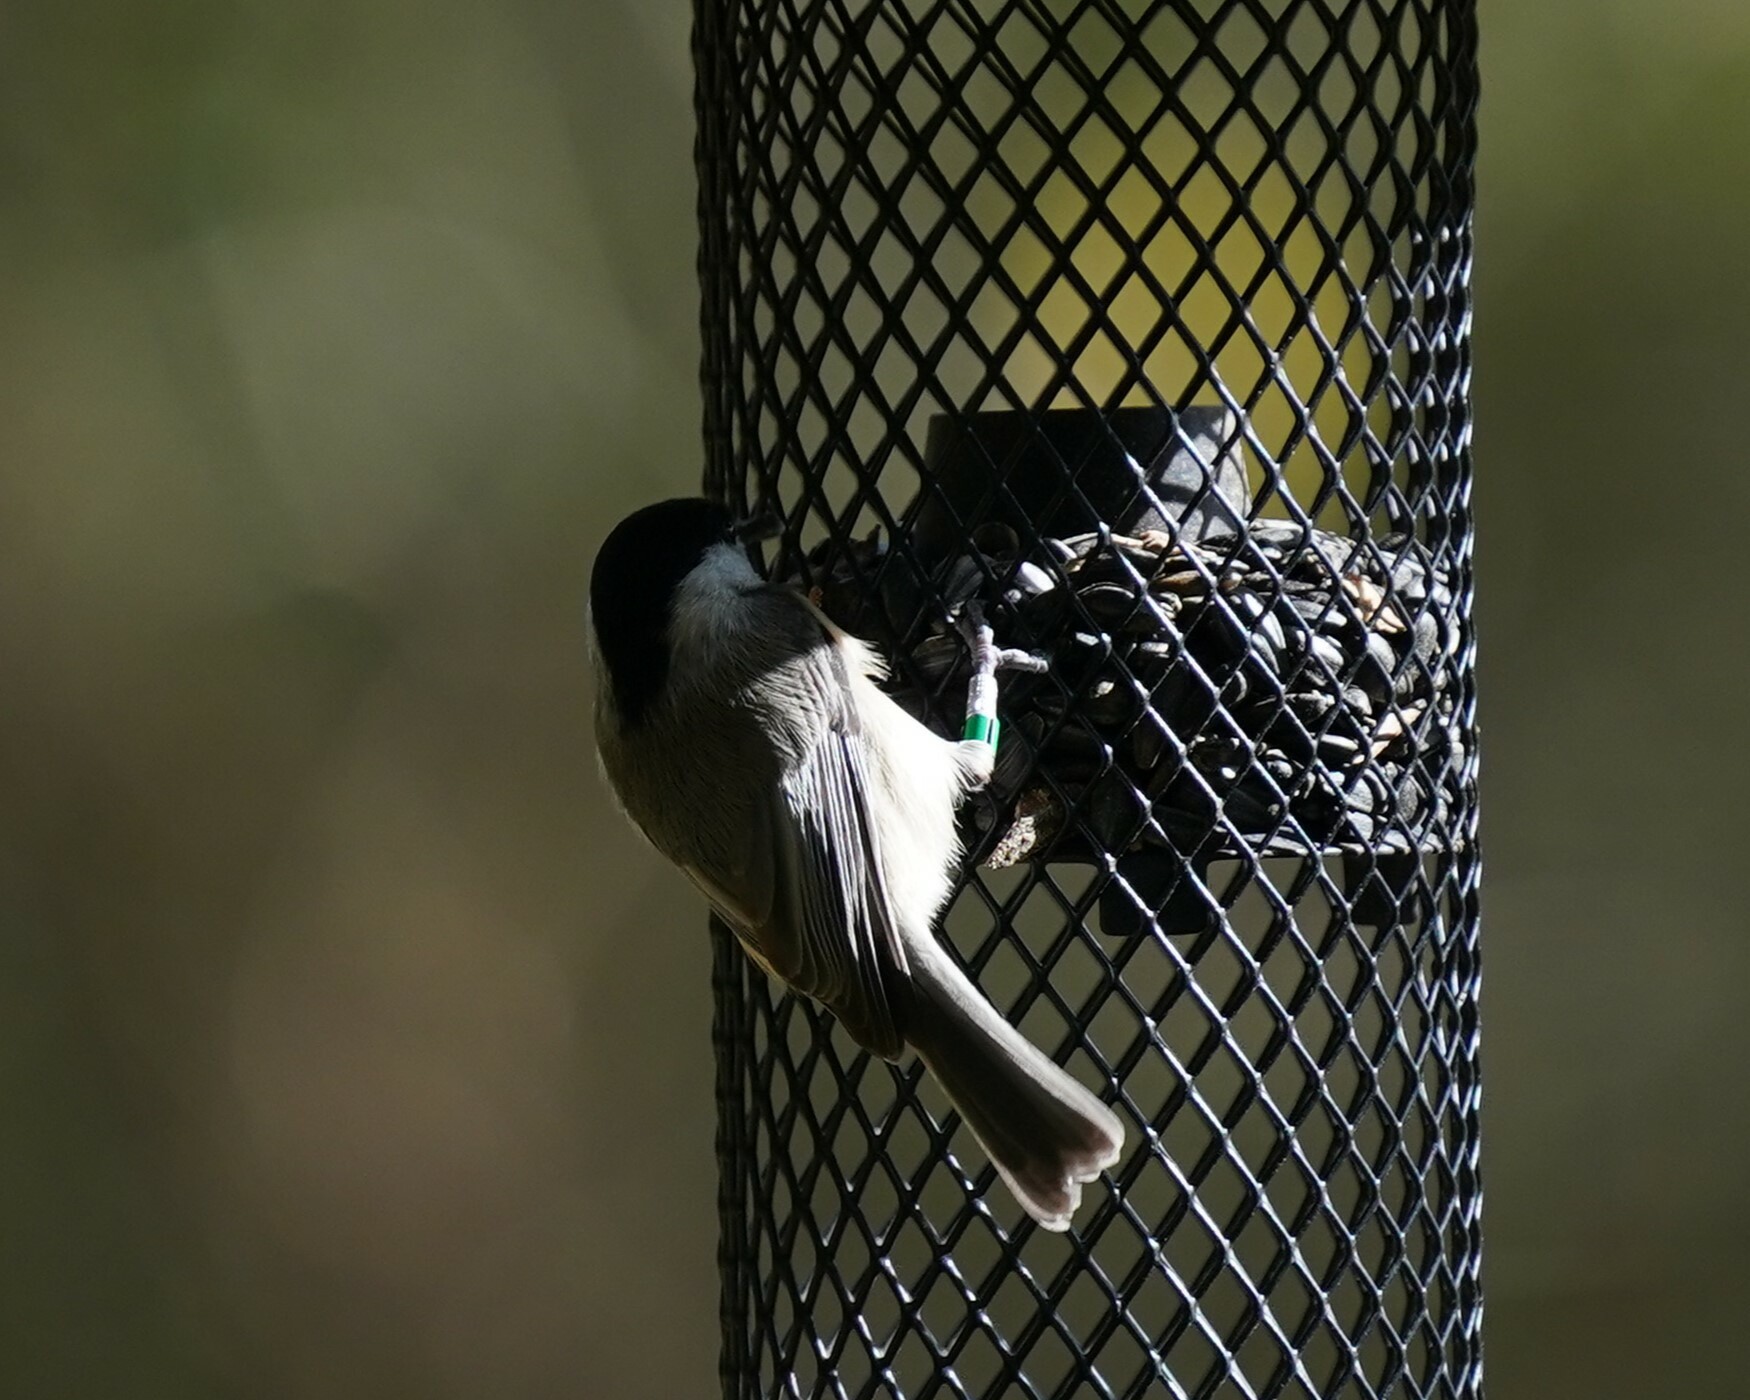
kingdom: Animalia
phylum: Chordata
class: Aves
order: Passeriformes
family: Paridae
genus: Poecile
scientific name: Poecile carolinensis
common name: Carolina chickadee
